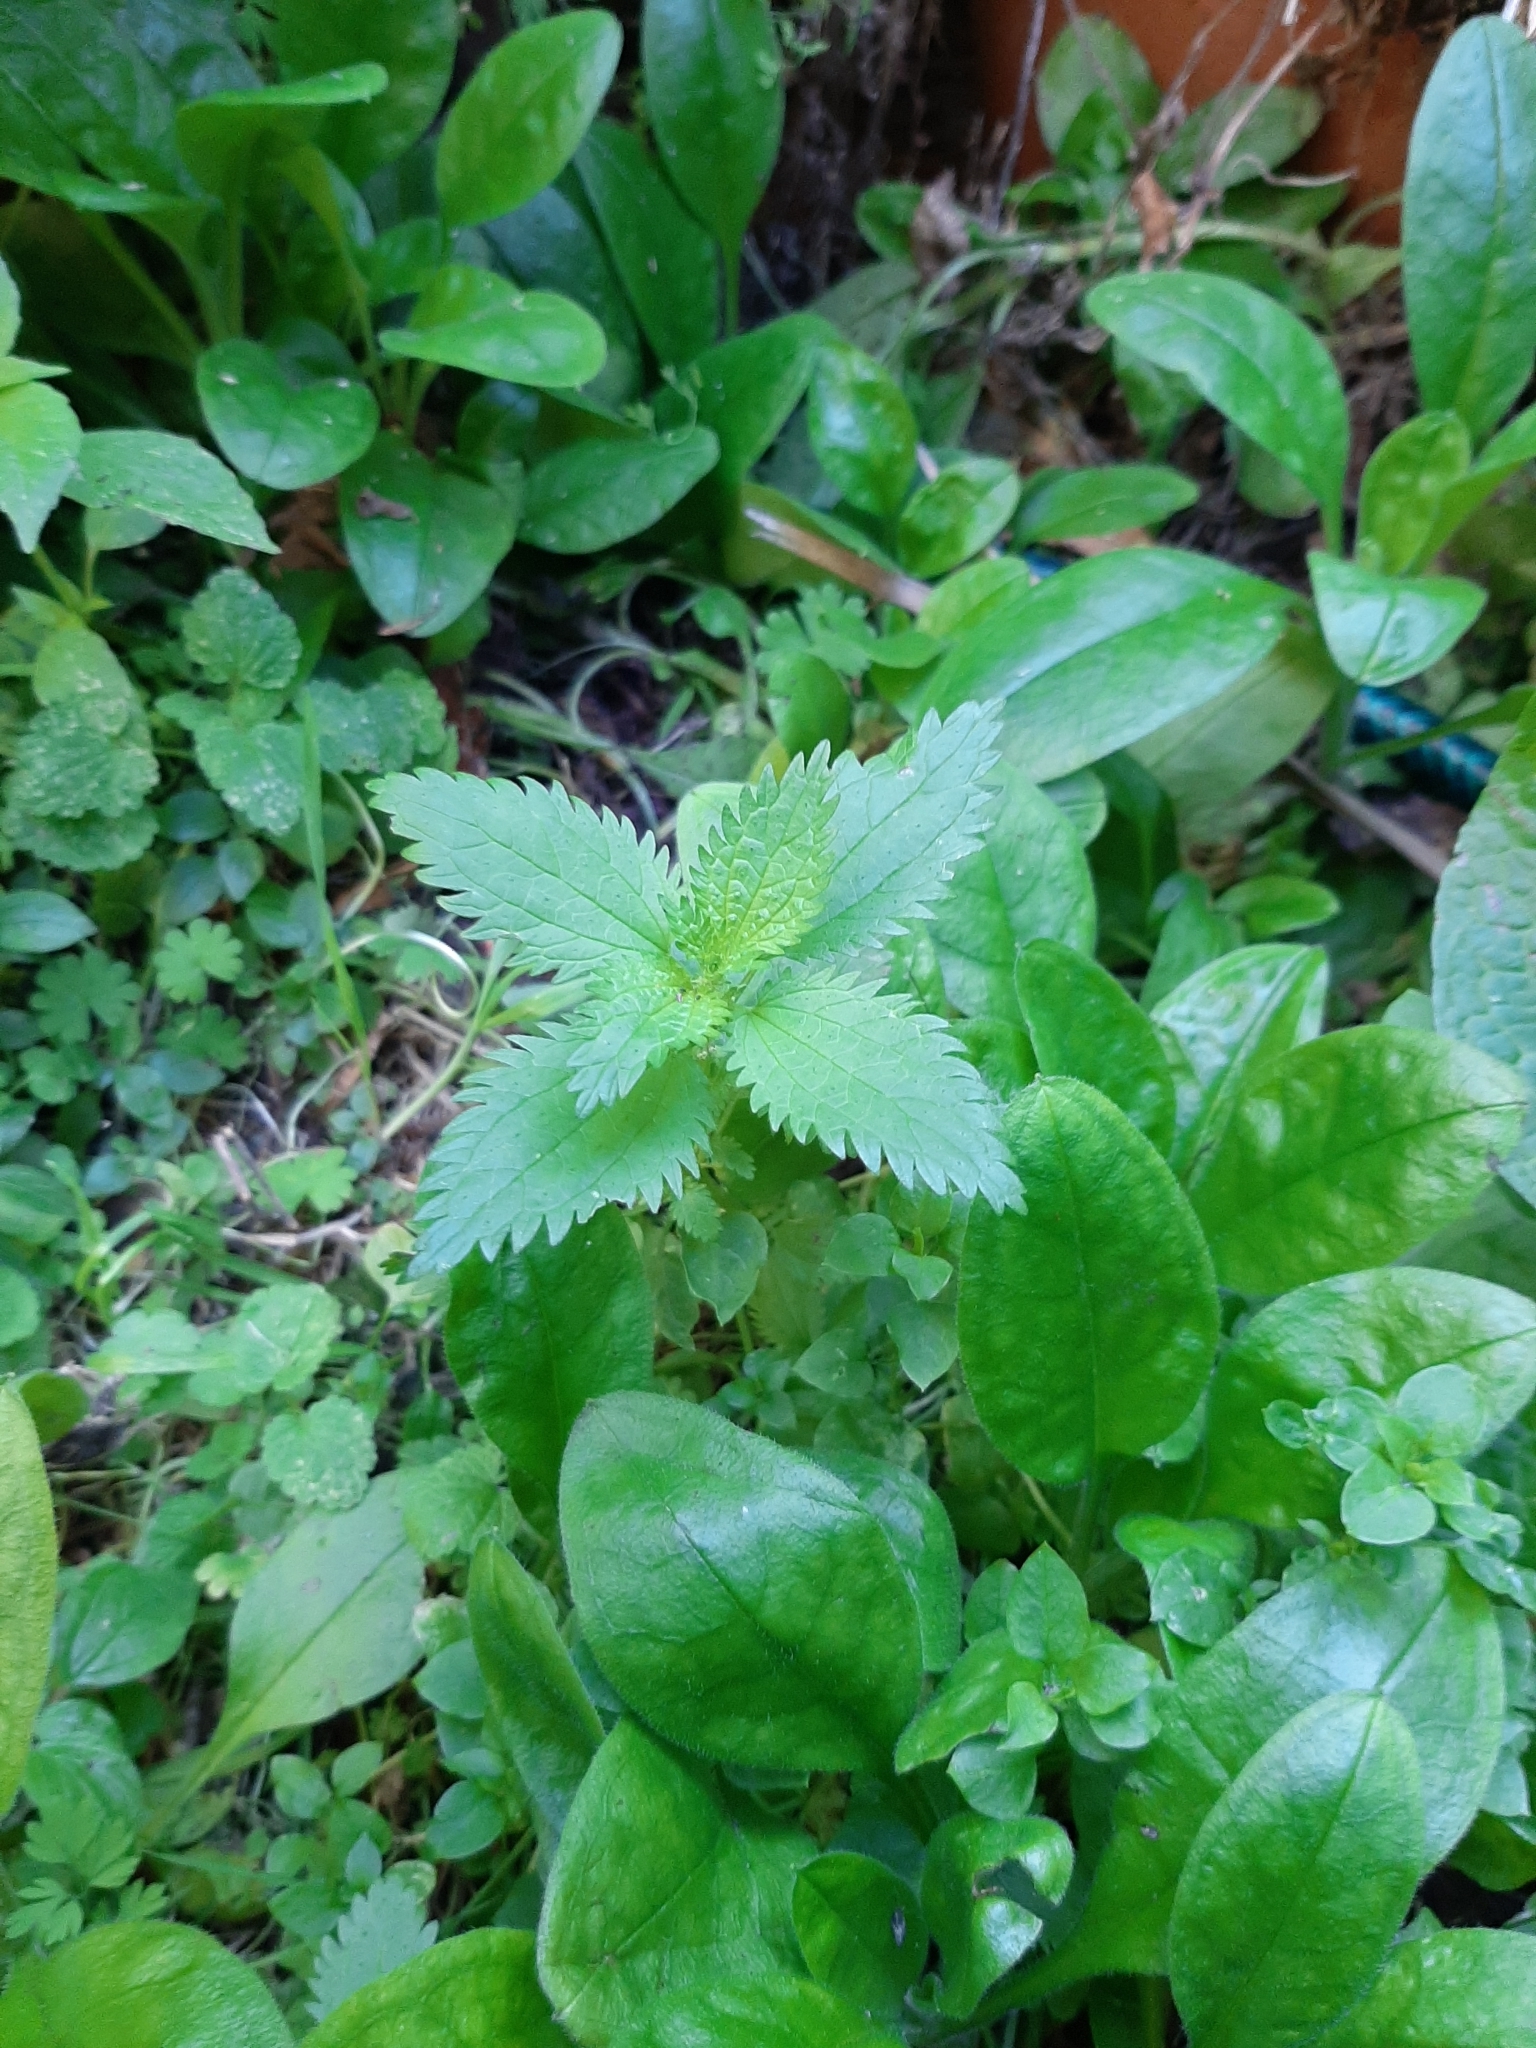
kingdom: Plantae
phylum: Tracheophyta
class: Magnoliopsida
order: Rosales
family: Urticaceae
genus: Urtica
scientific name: Urtica urens
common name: Dwarf nettle
